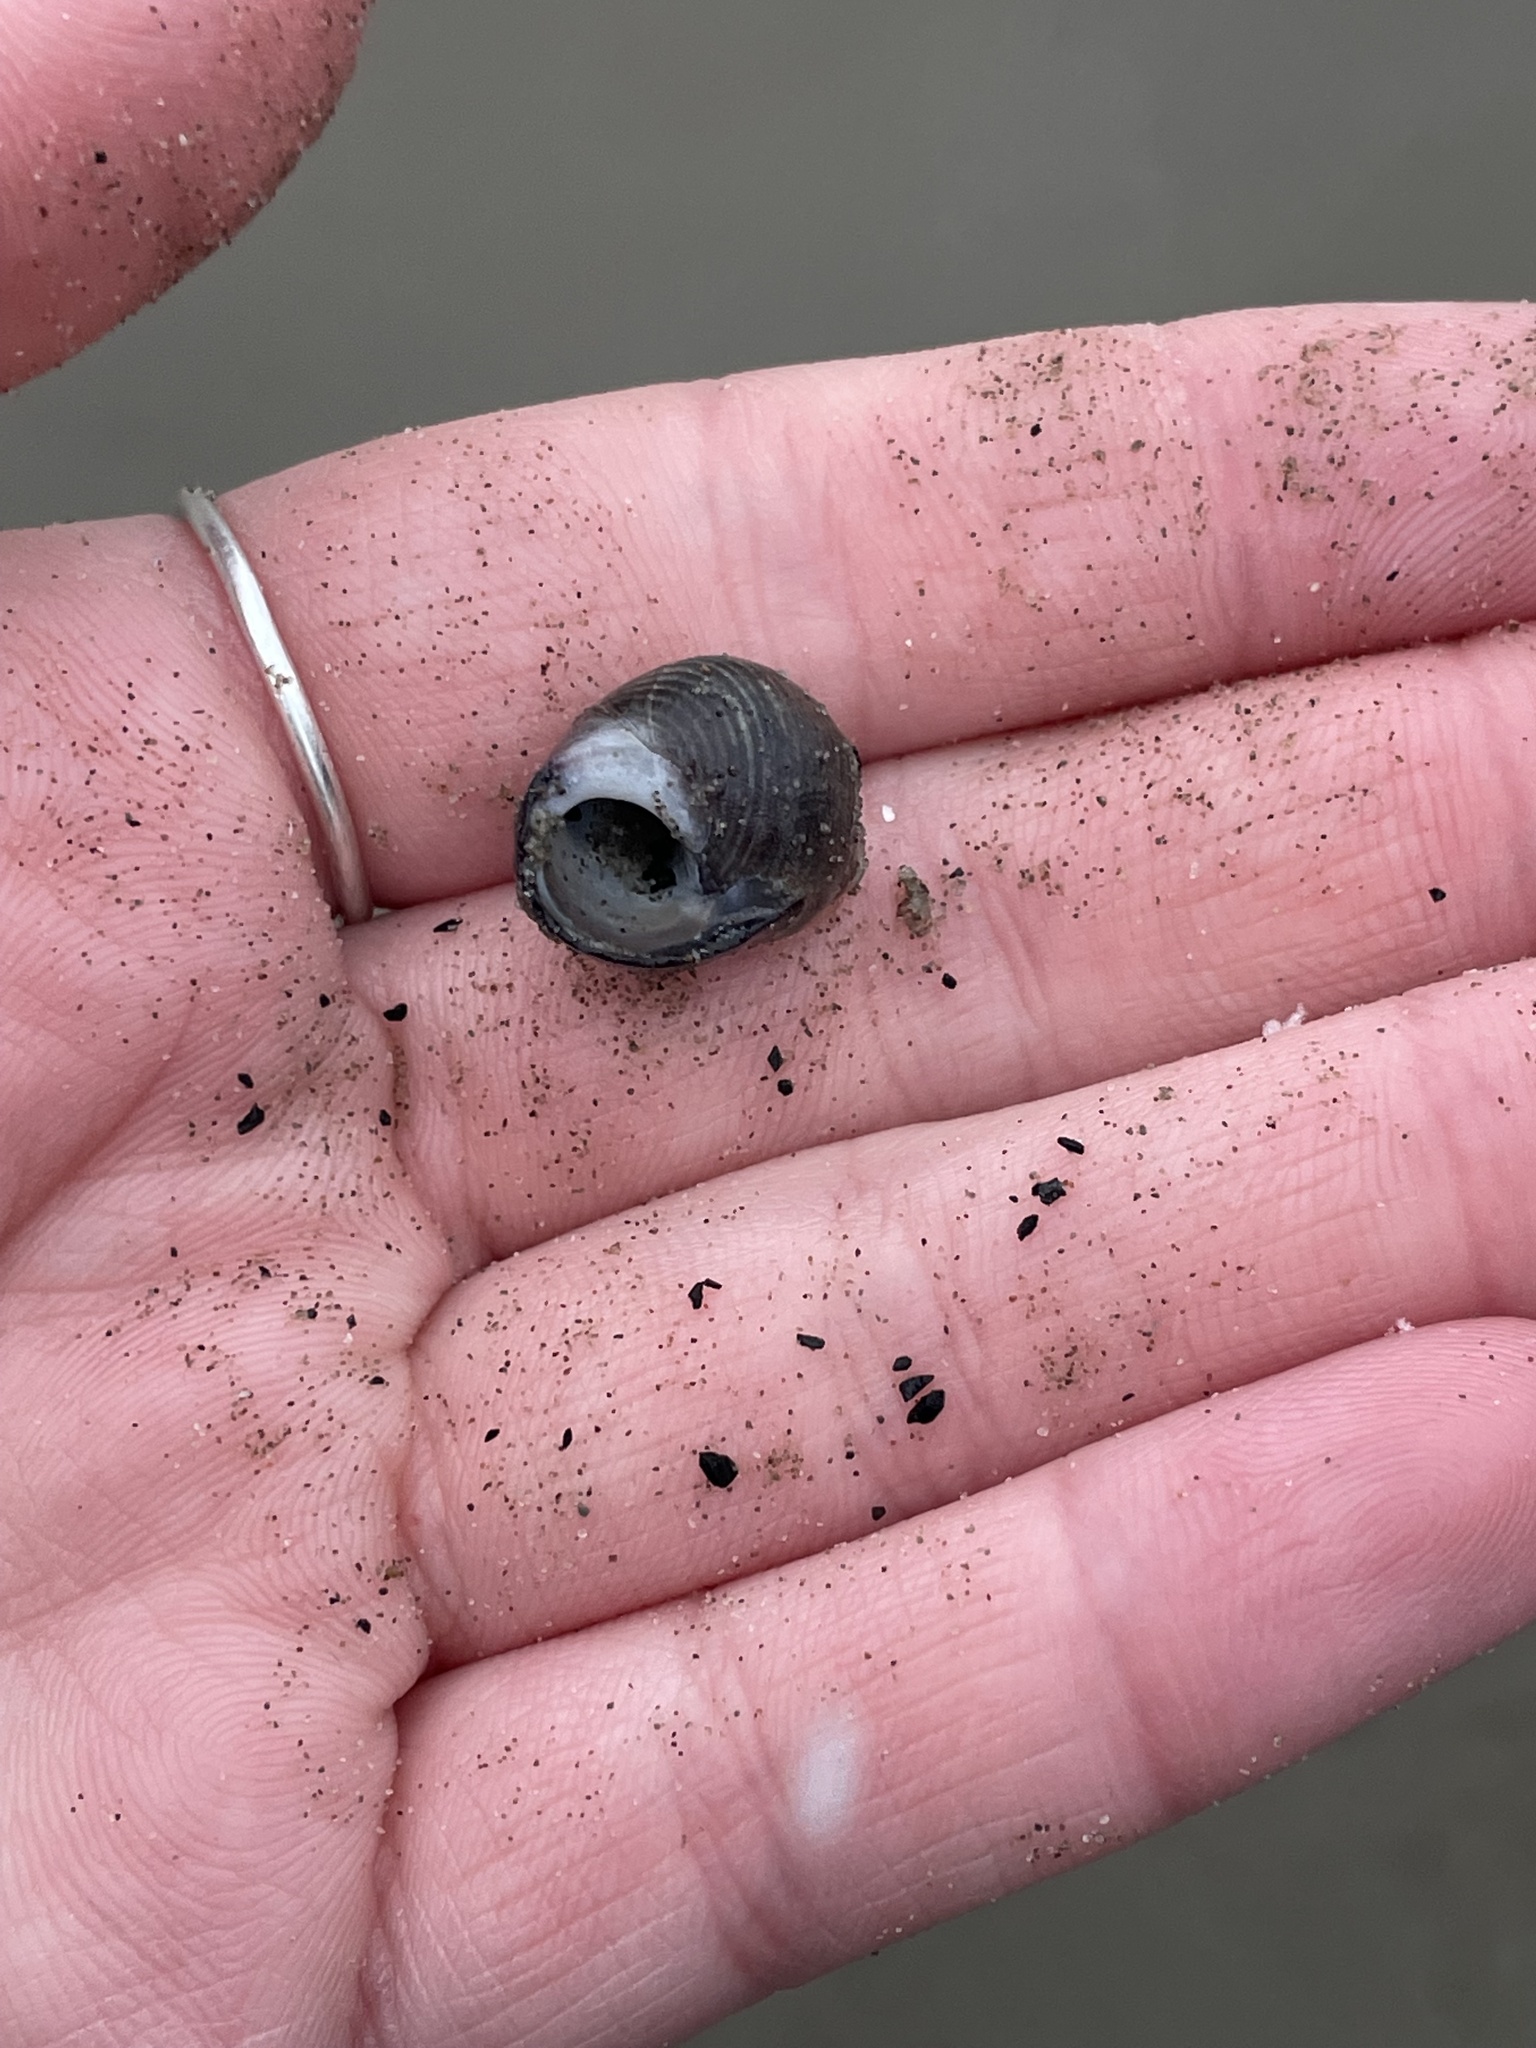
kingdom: Animalia
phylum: Mollusca
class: Gastropoda
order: Littorinimorpha
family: Littorinidae
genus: Littorina
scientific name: Littorina littorea
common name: Common periwinkle
